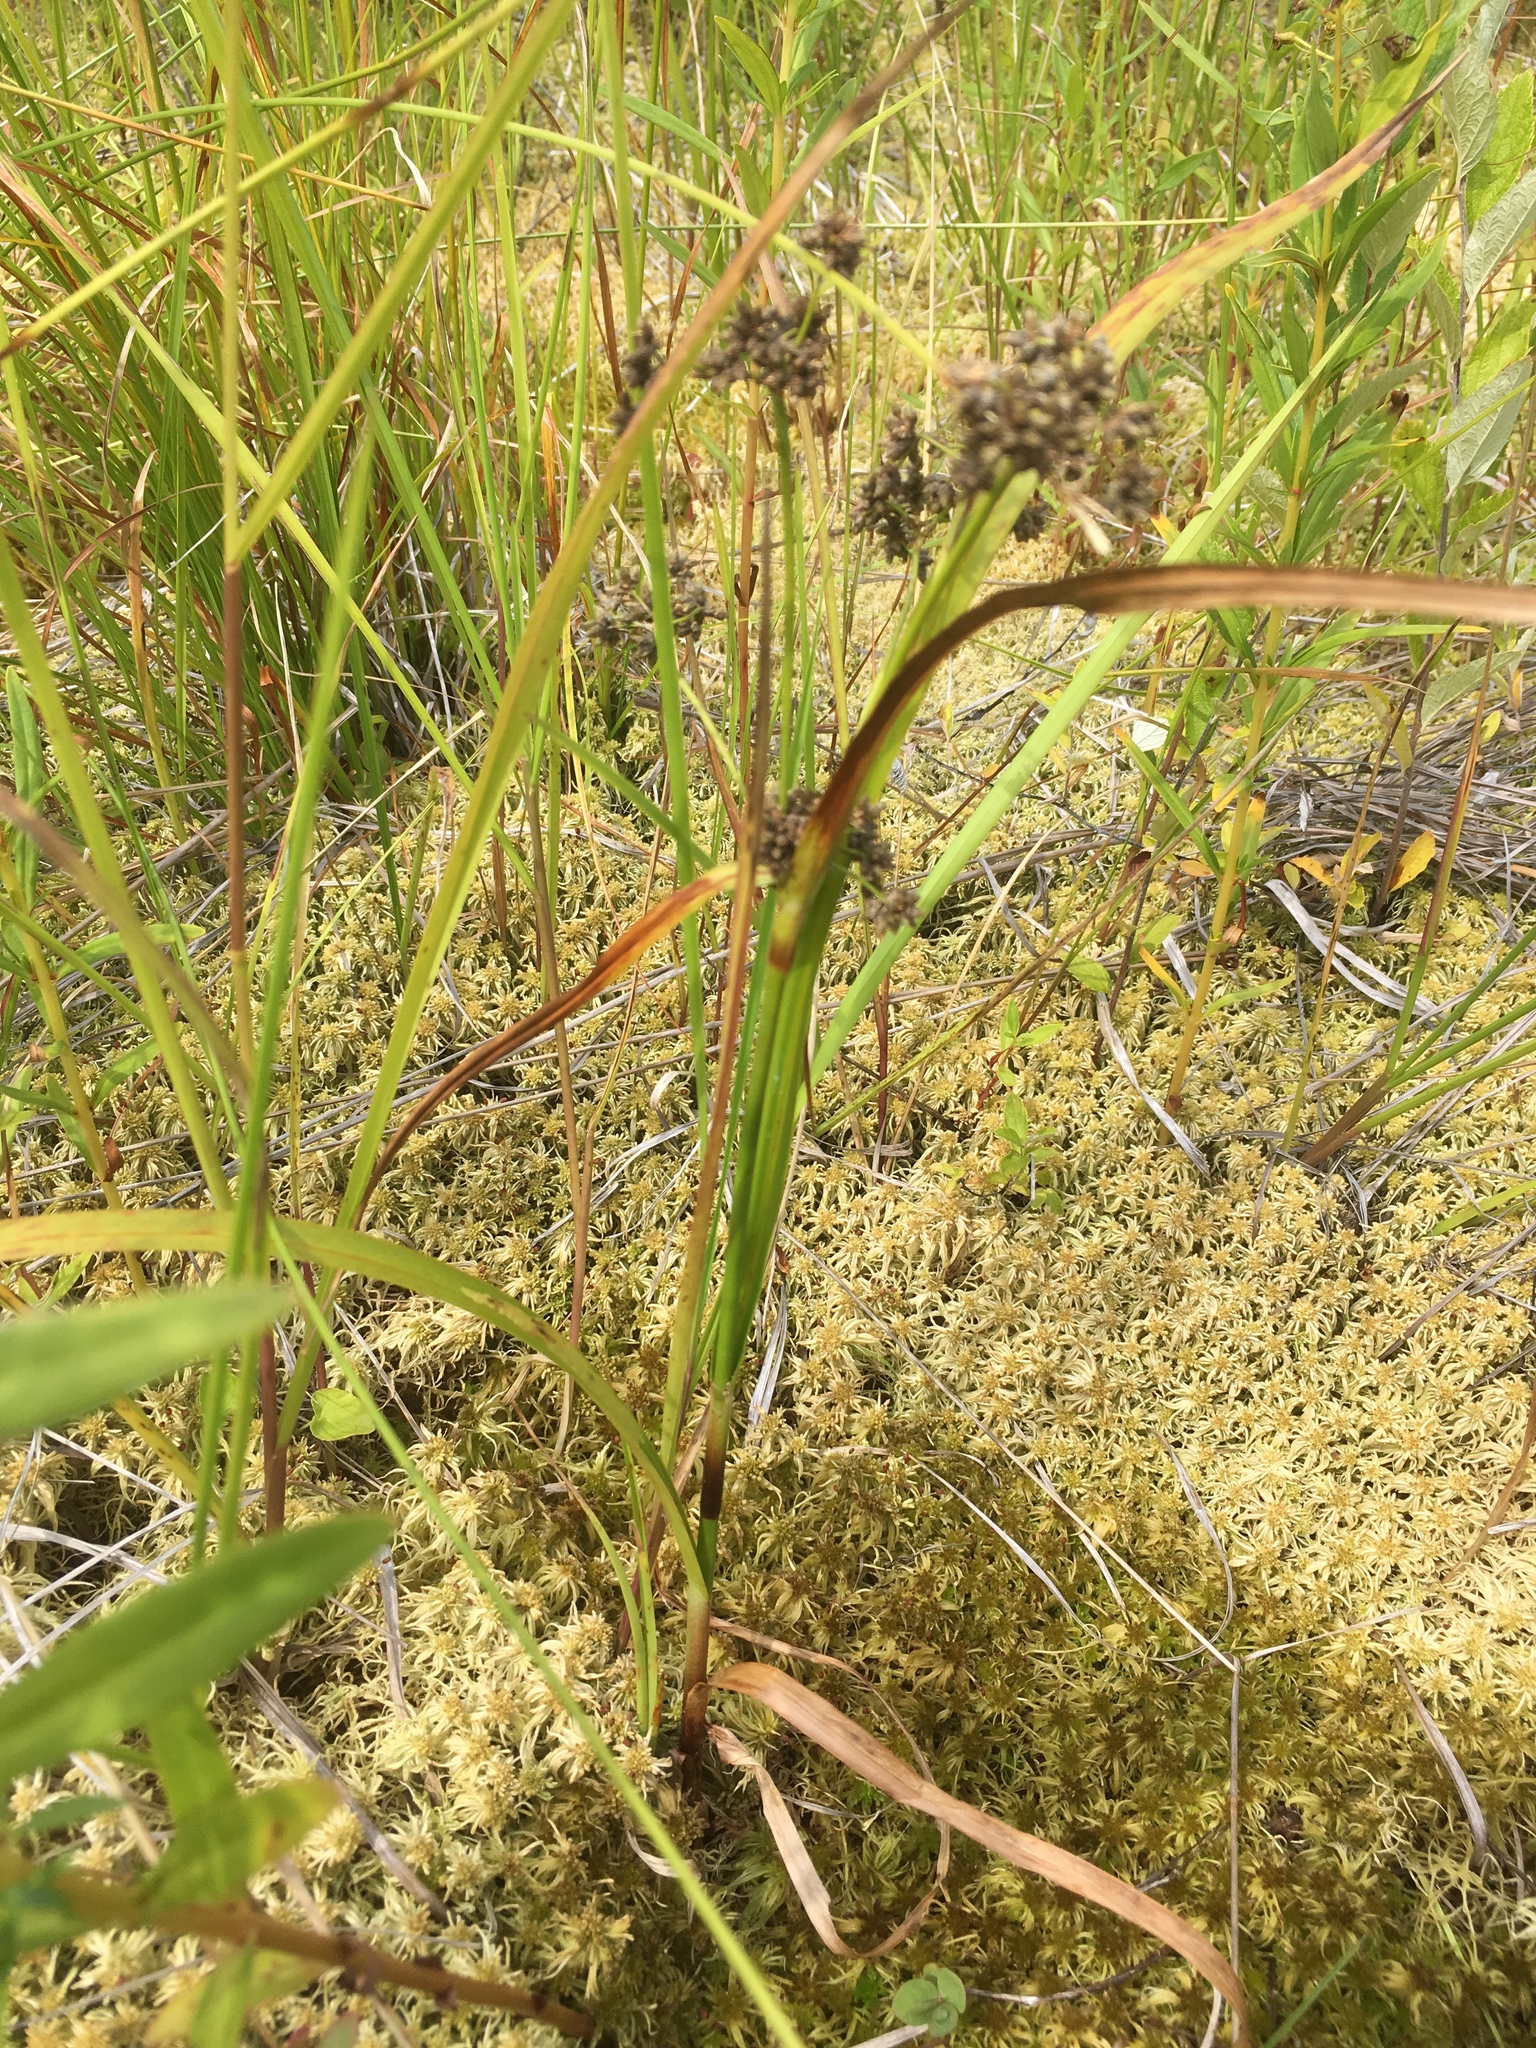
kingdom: Plantae
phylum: Tracheophyta
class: Liliopsida
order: Poales
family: Cyperaceae
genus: Scirpus
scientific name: Scirpus microcarpus
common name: Panicled bulrush
